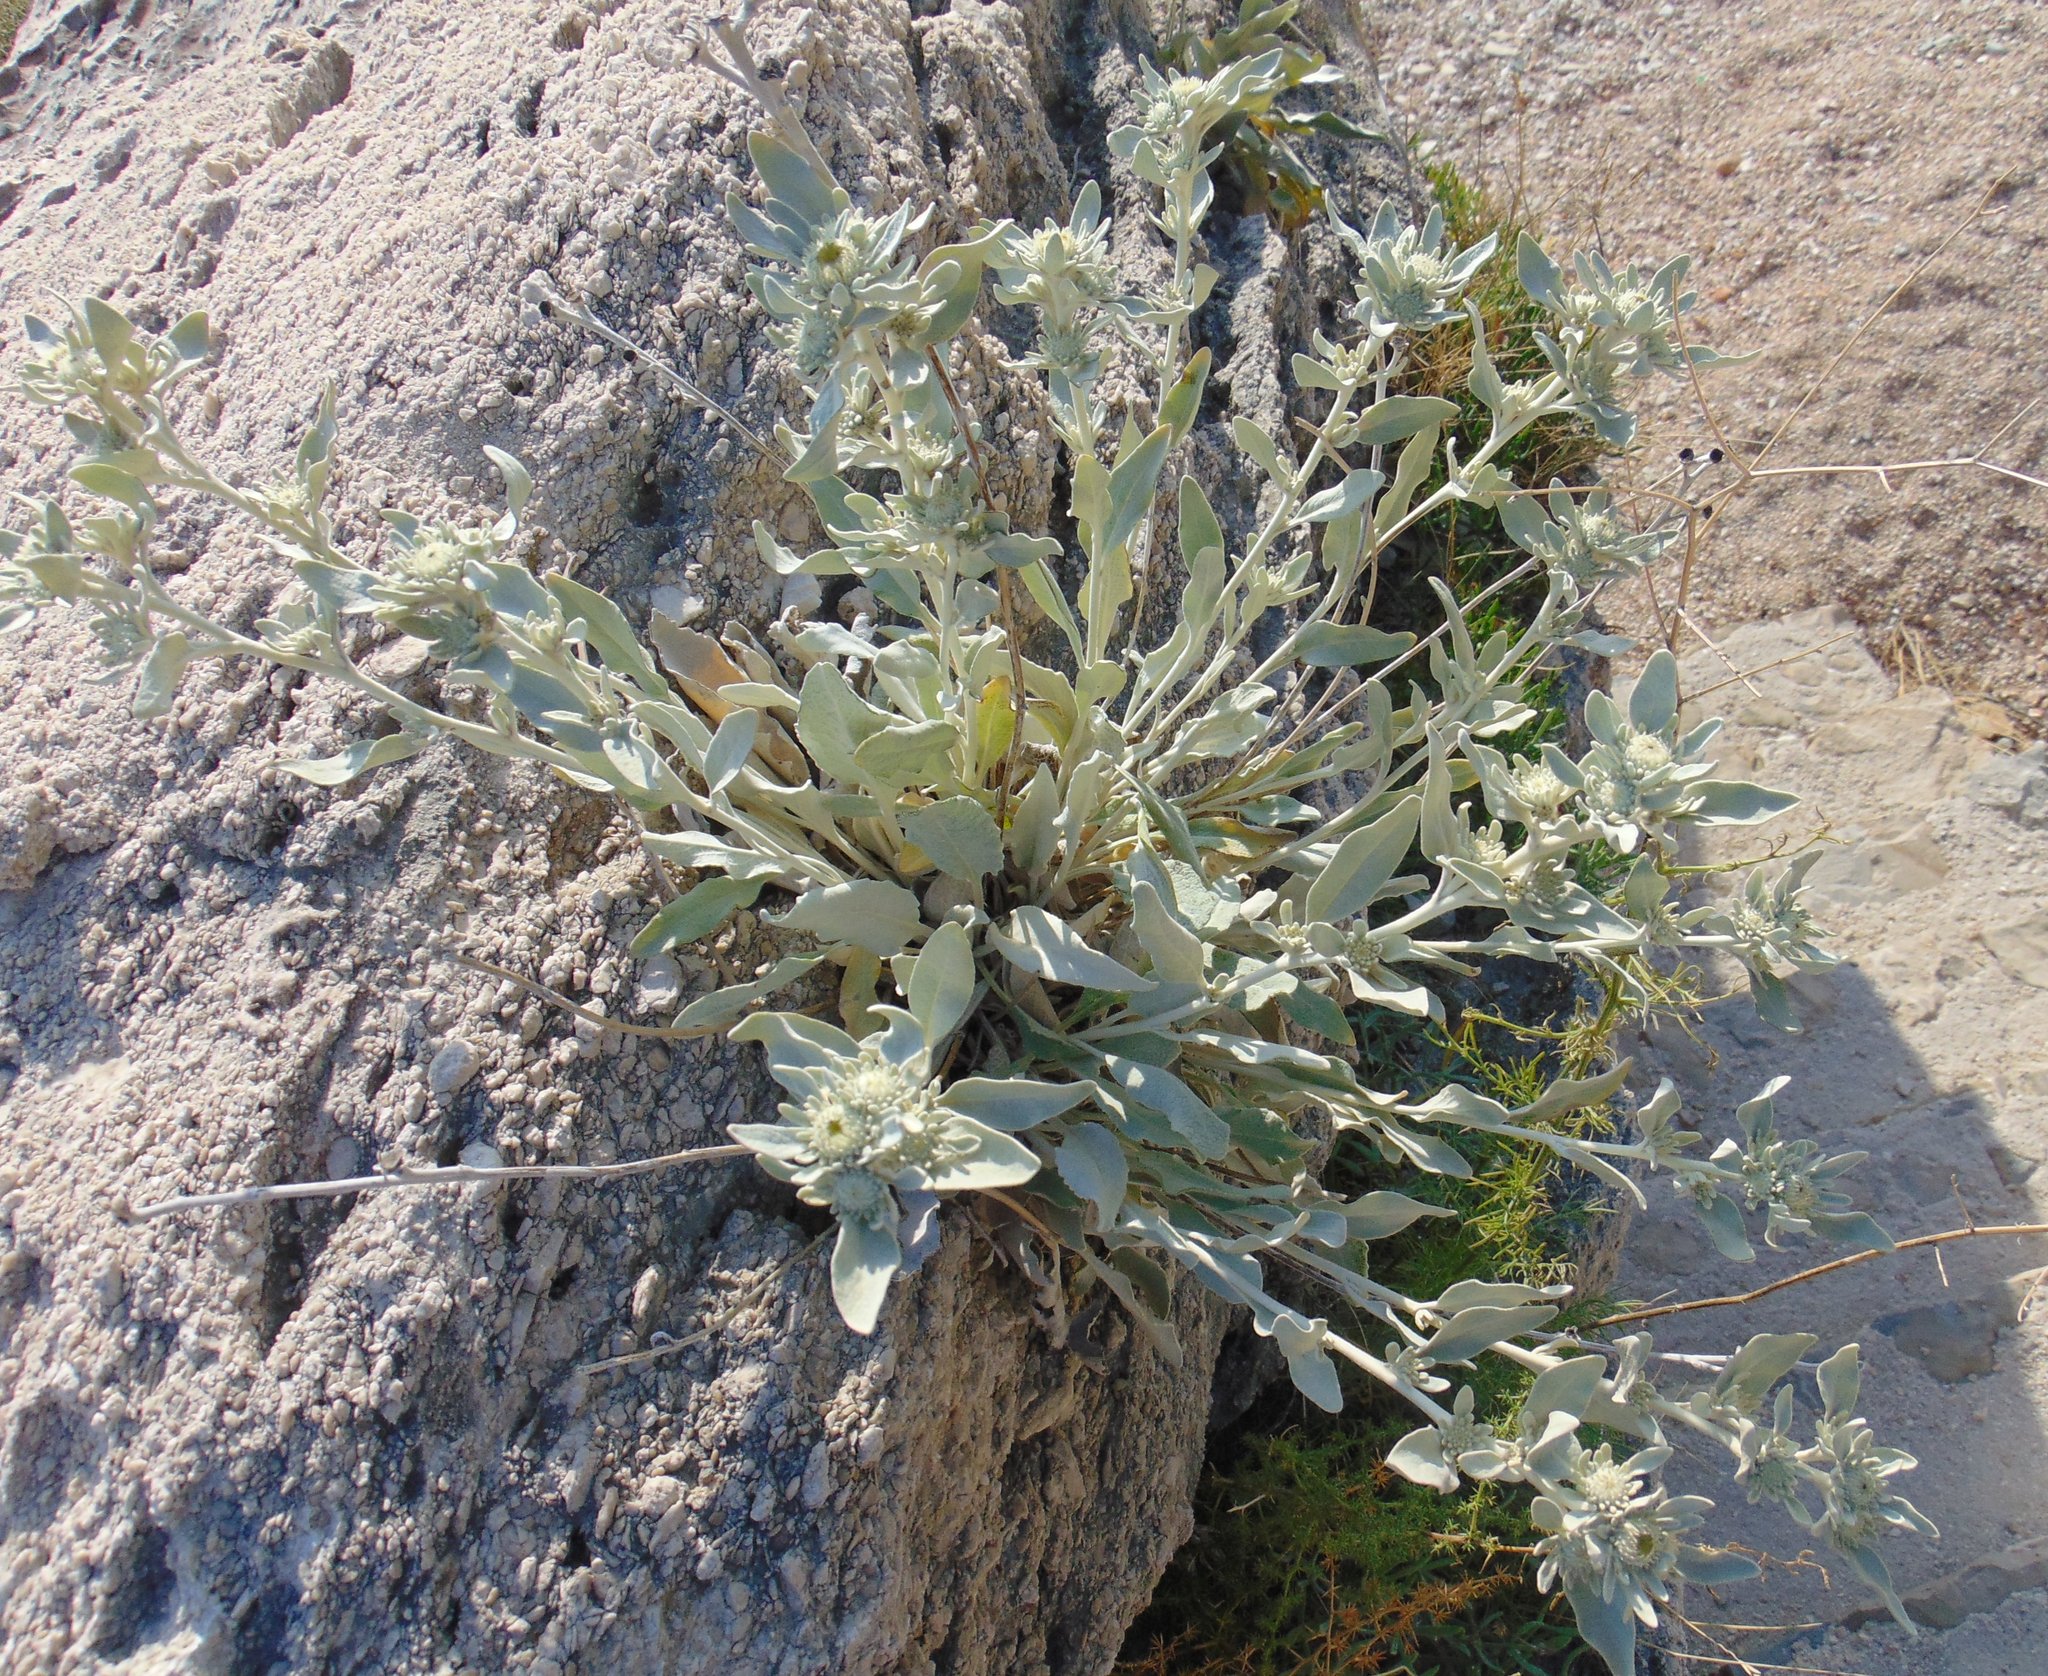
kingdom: Plantae
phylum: Tracheophyta
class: Magnoliopsida
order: Asterales
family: Asteraceae
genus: Pentanema
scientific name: Pentanema verbascifolium
